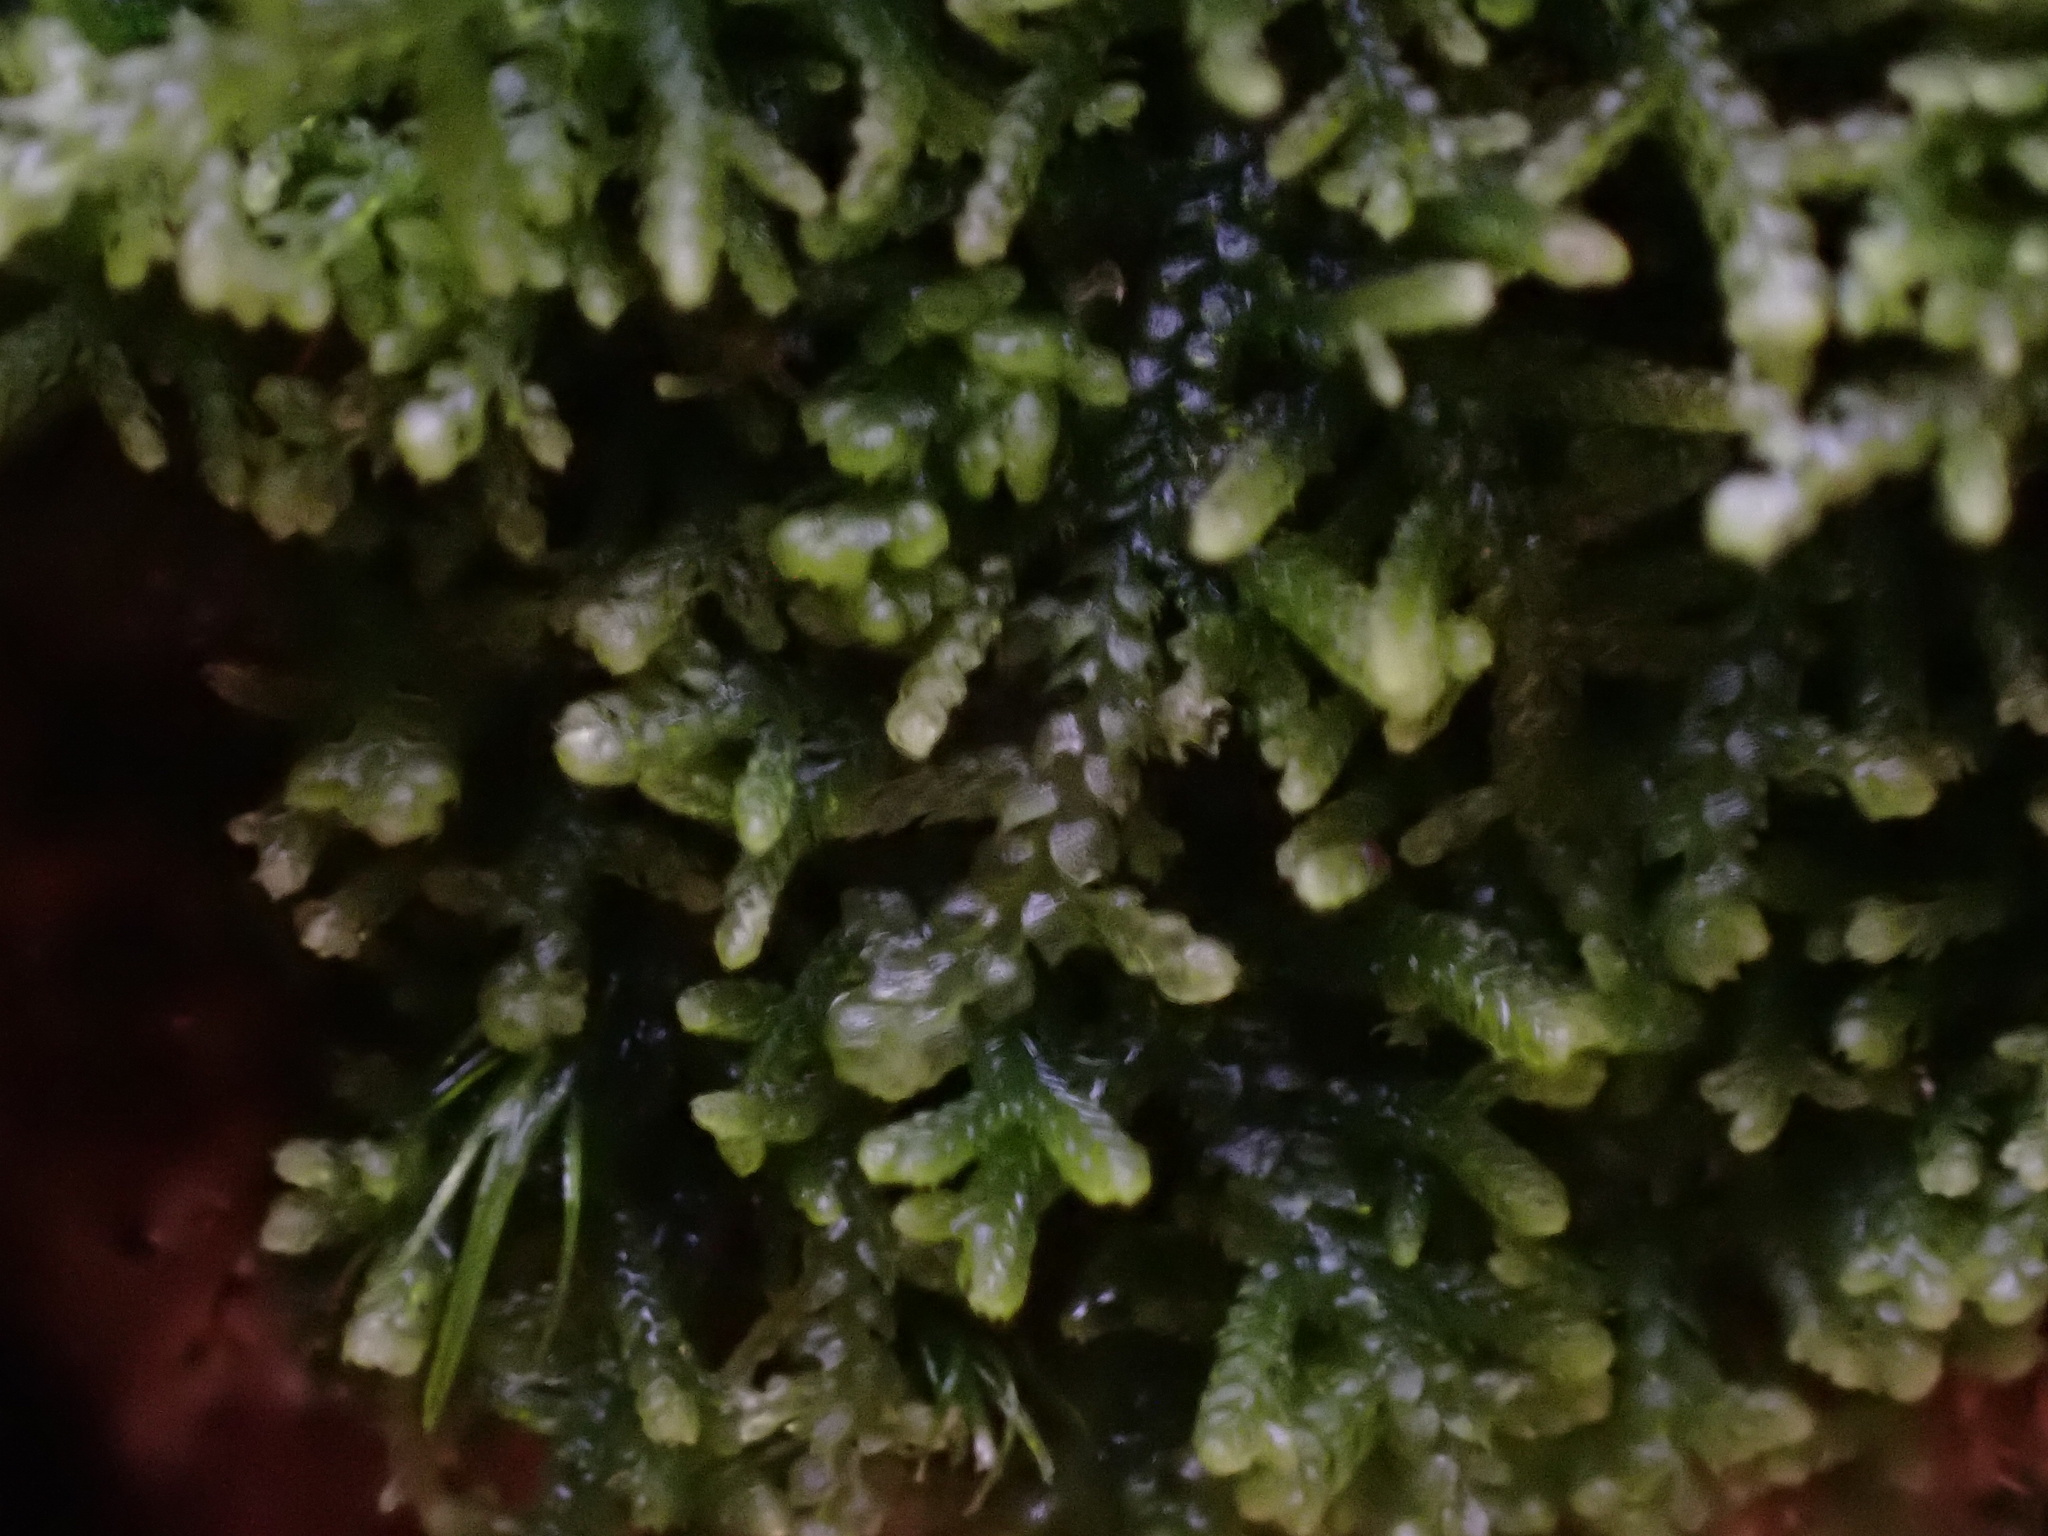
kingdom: Plantae
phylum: Marchantiophyta
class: Jungermanniopsida
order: Jungermanniales
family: Lepidoziaceae
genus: Lepidozia
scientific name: Lepidozia reptans
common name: Creeping fingerwort
